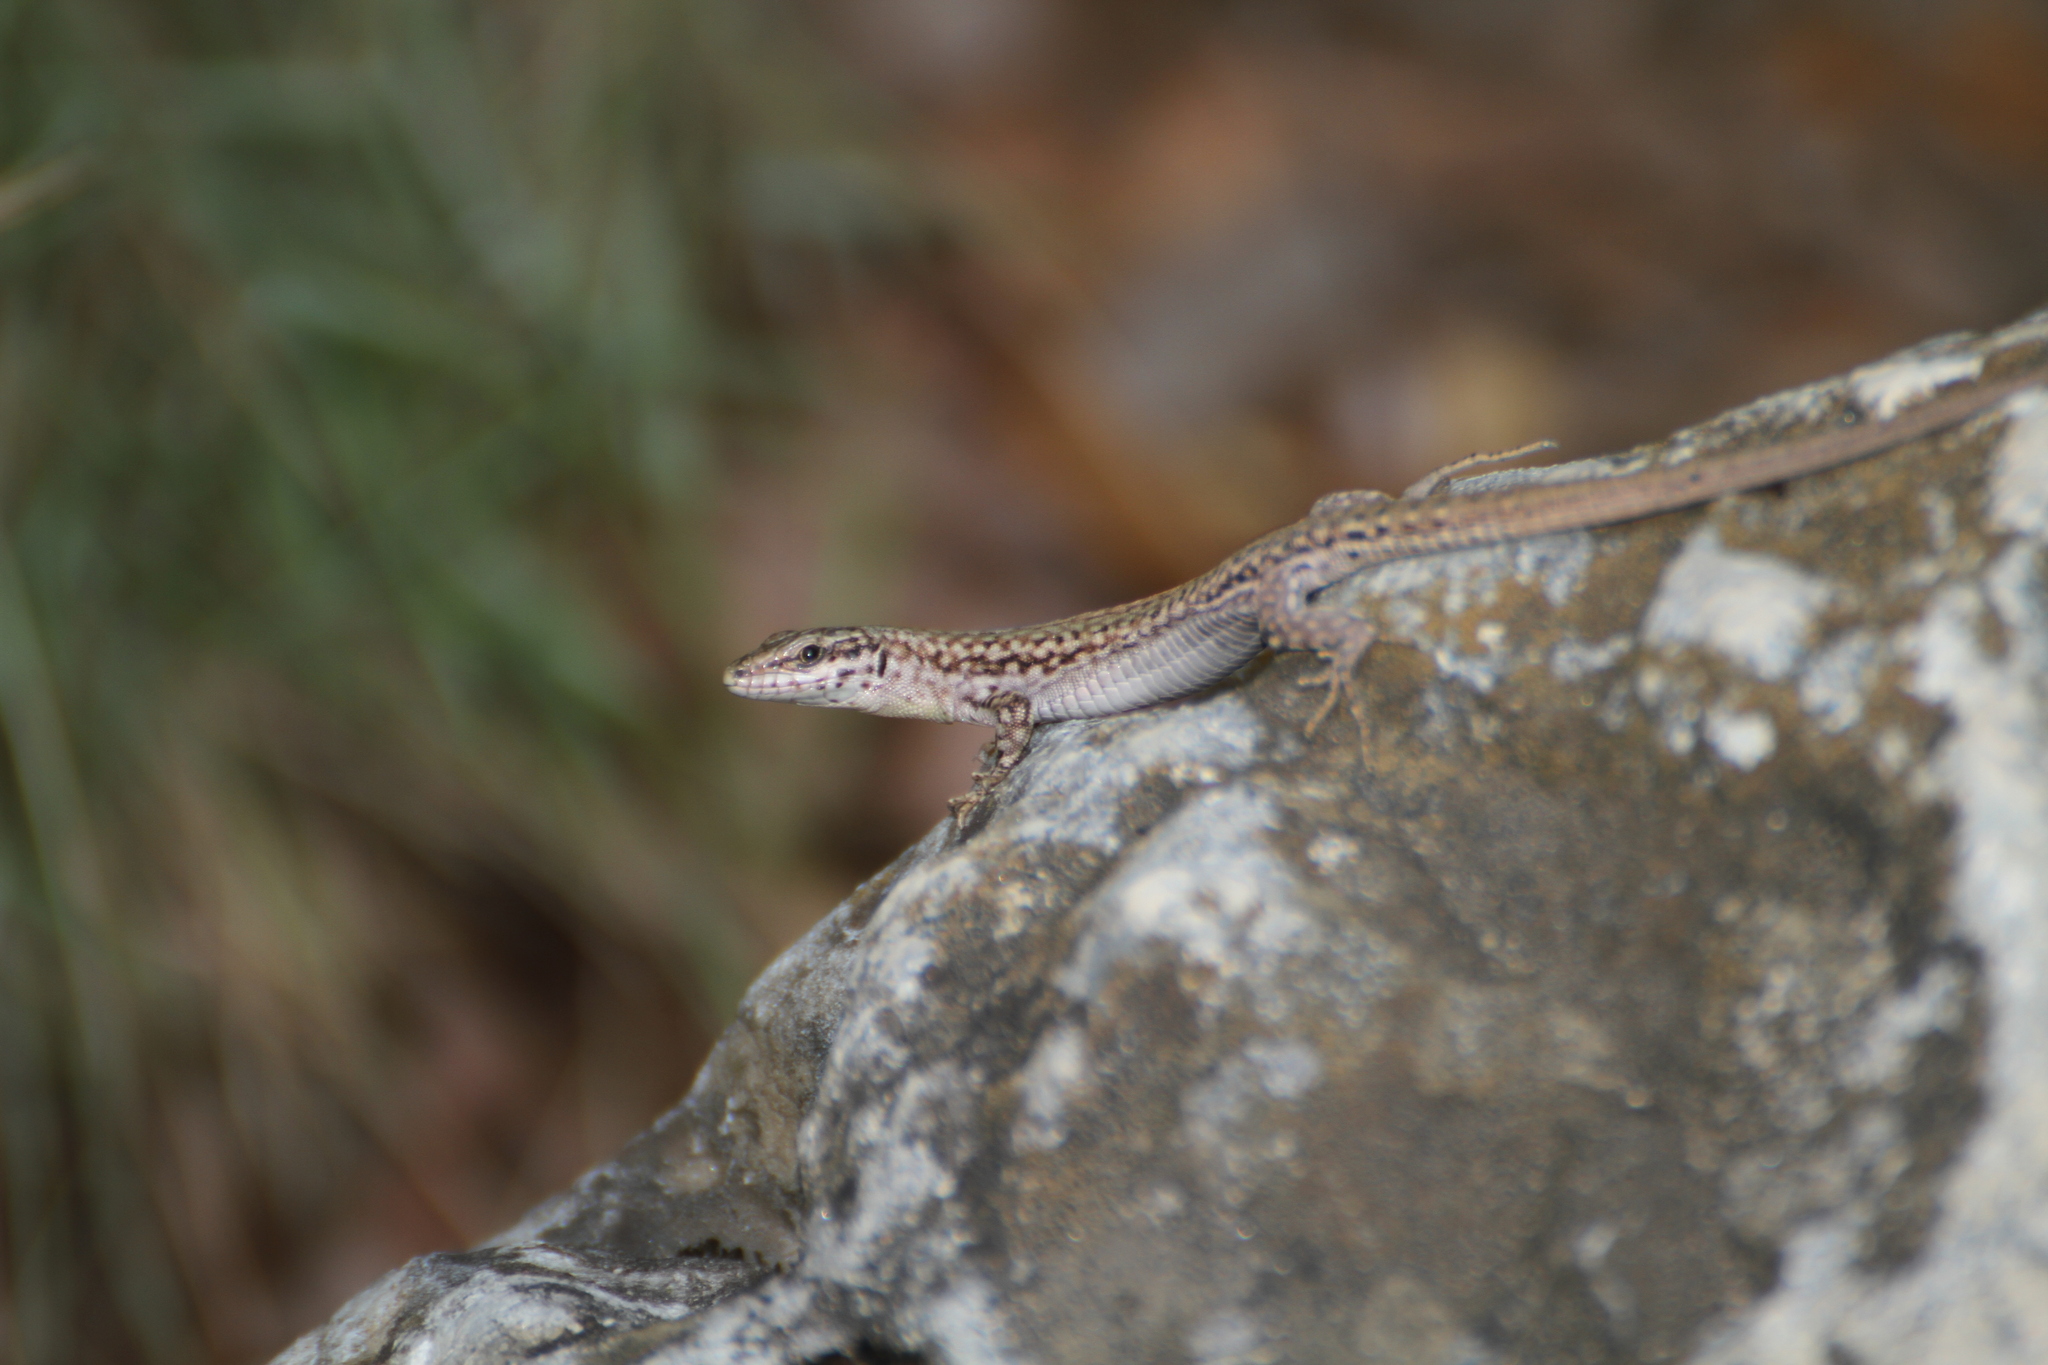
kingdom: Animalia
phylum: Chordata
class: Squamata
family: Lacertidae
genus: Podarcis
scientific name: Podarcis liolepis
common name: Catalonian wall lizard
